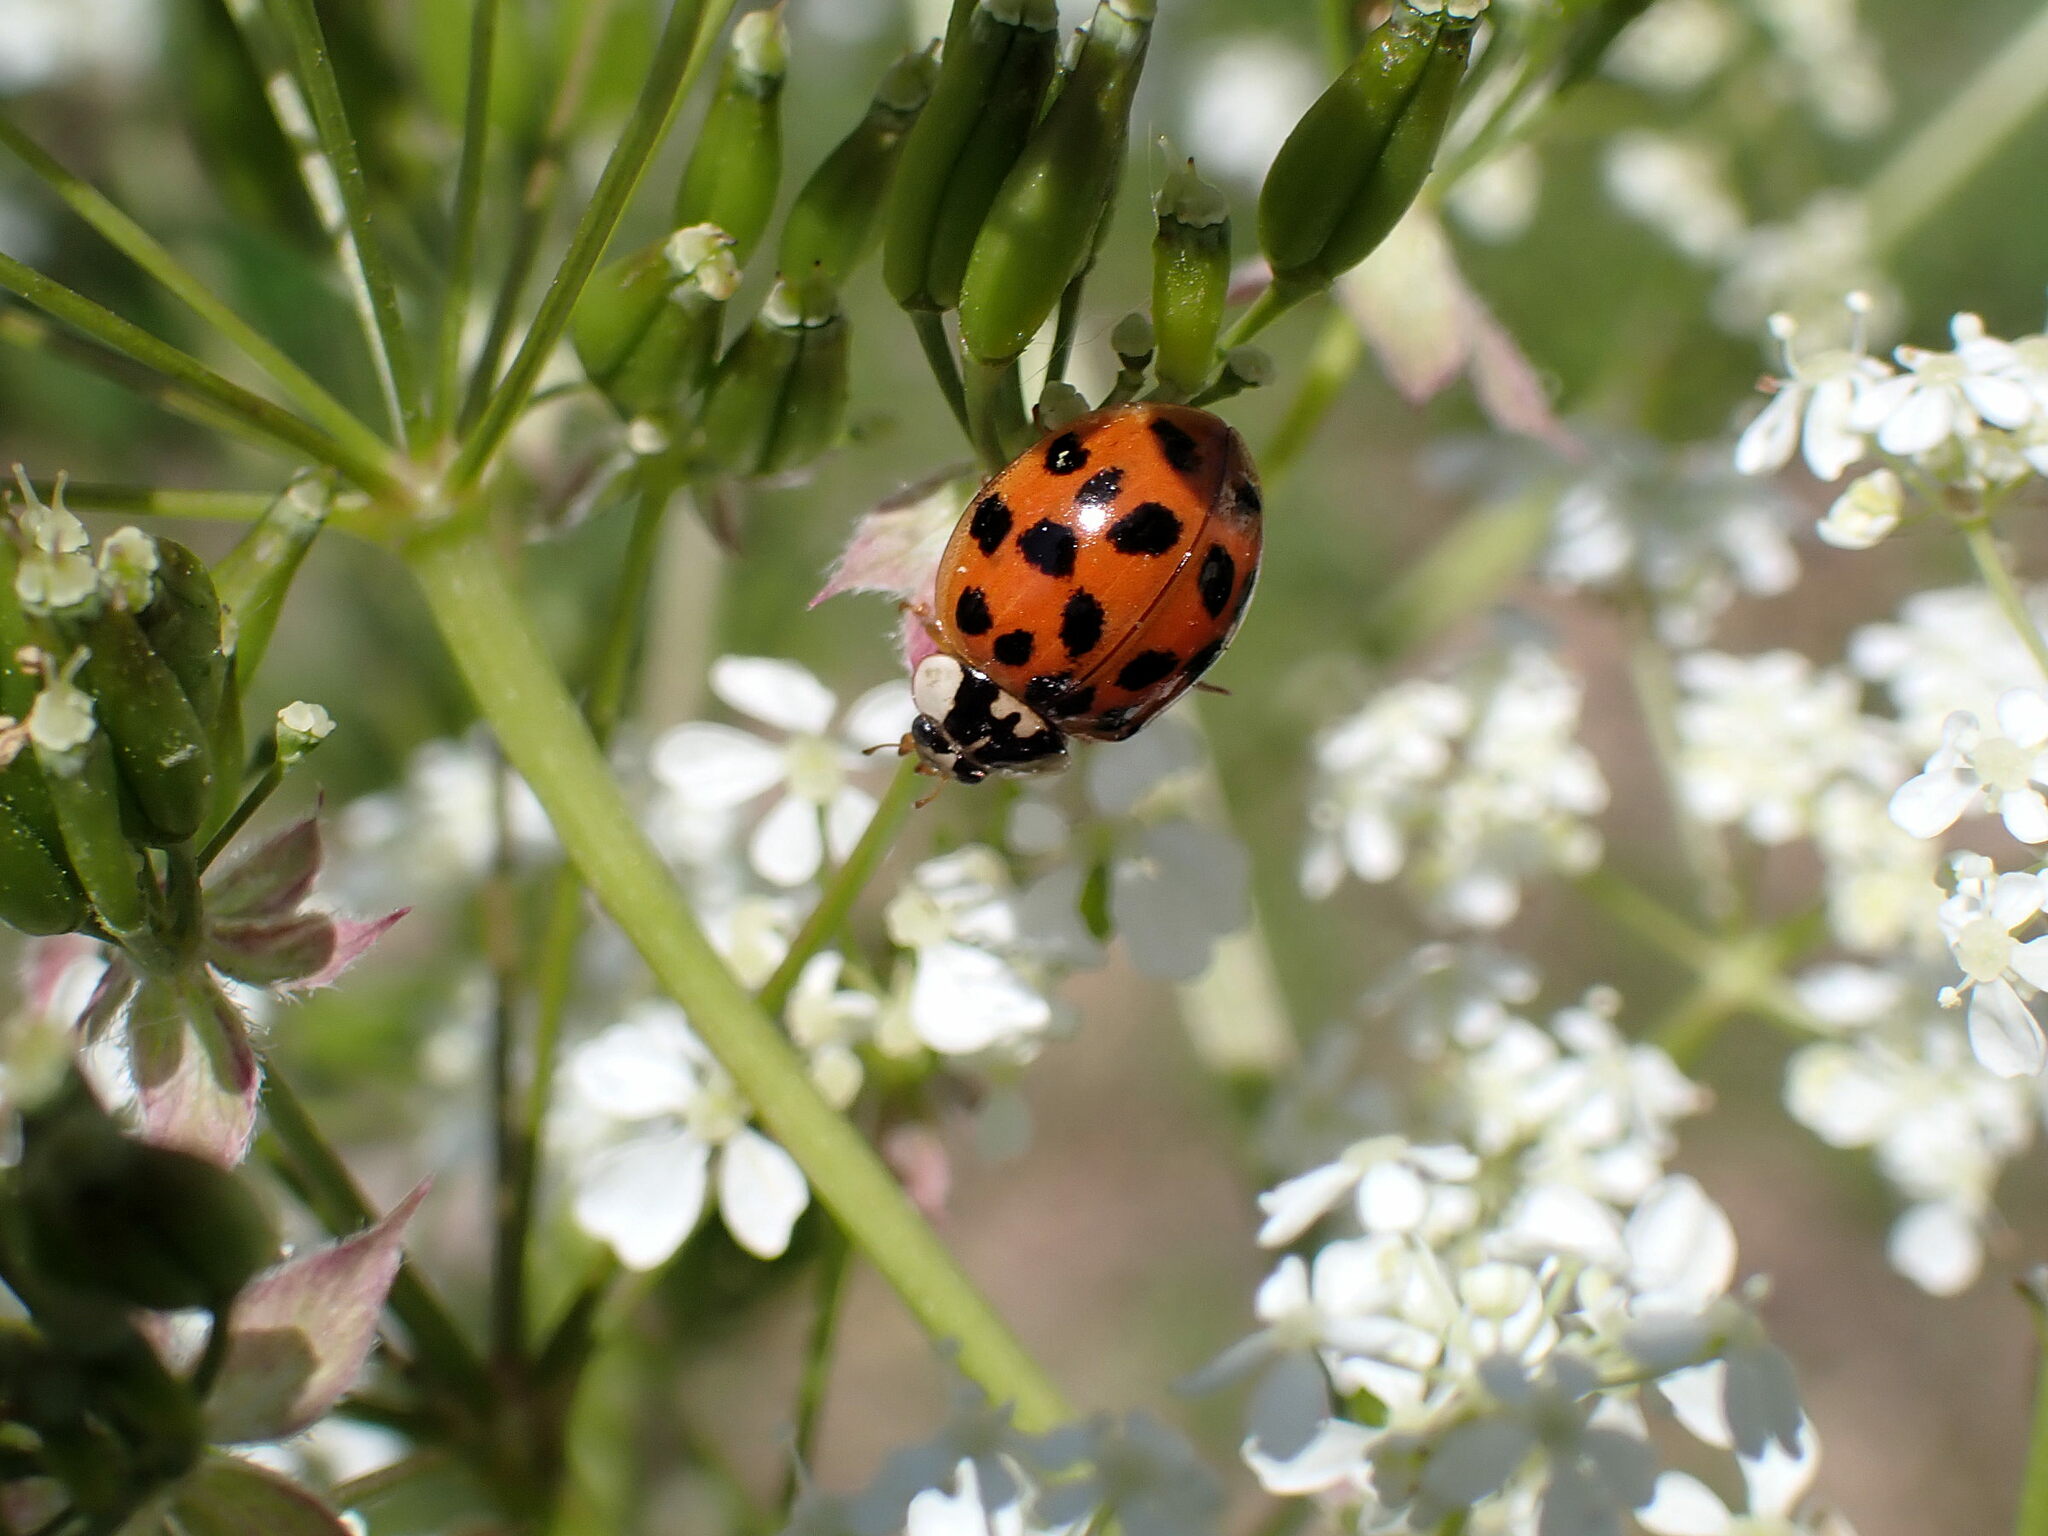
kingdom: Animalia
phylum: Arthropoda
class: Insecta
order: Coleoptera
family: Coccinellidae
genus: Harmonia
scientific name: Harmonia axyridis
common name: Harlequin ladybird
